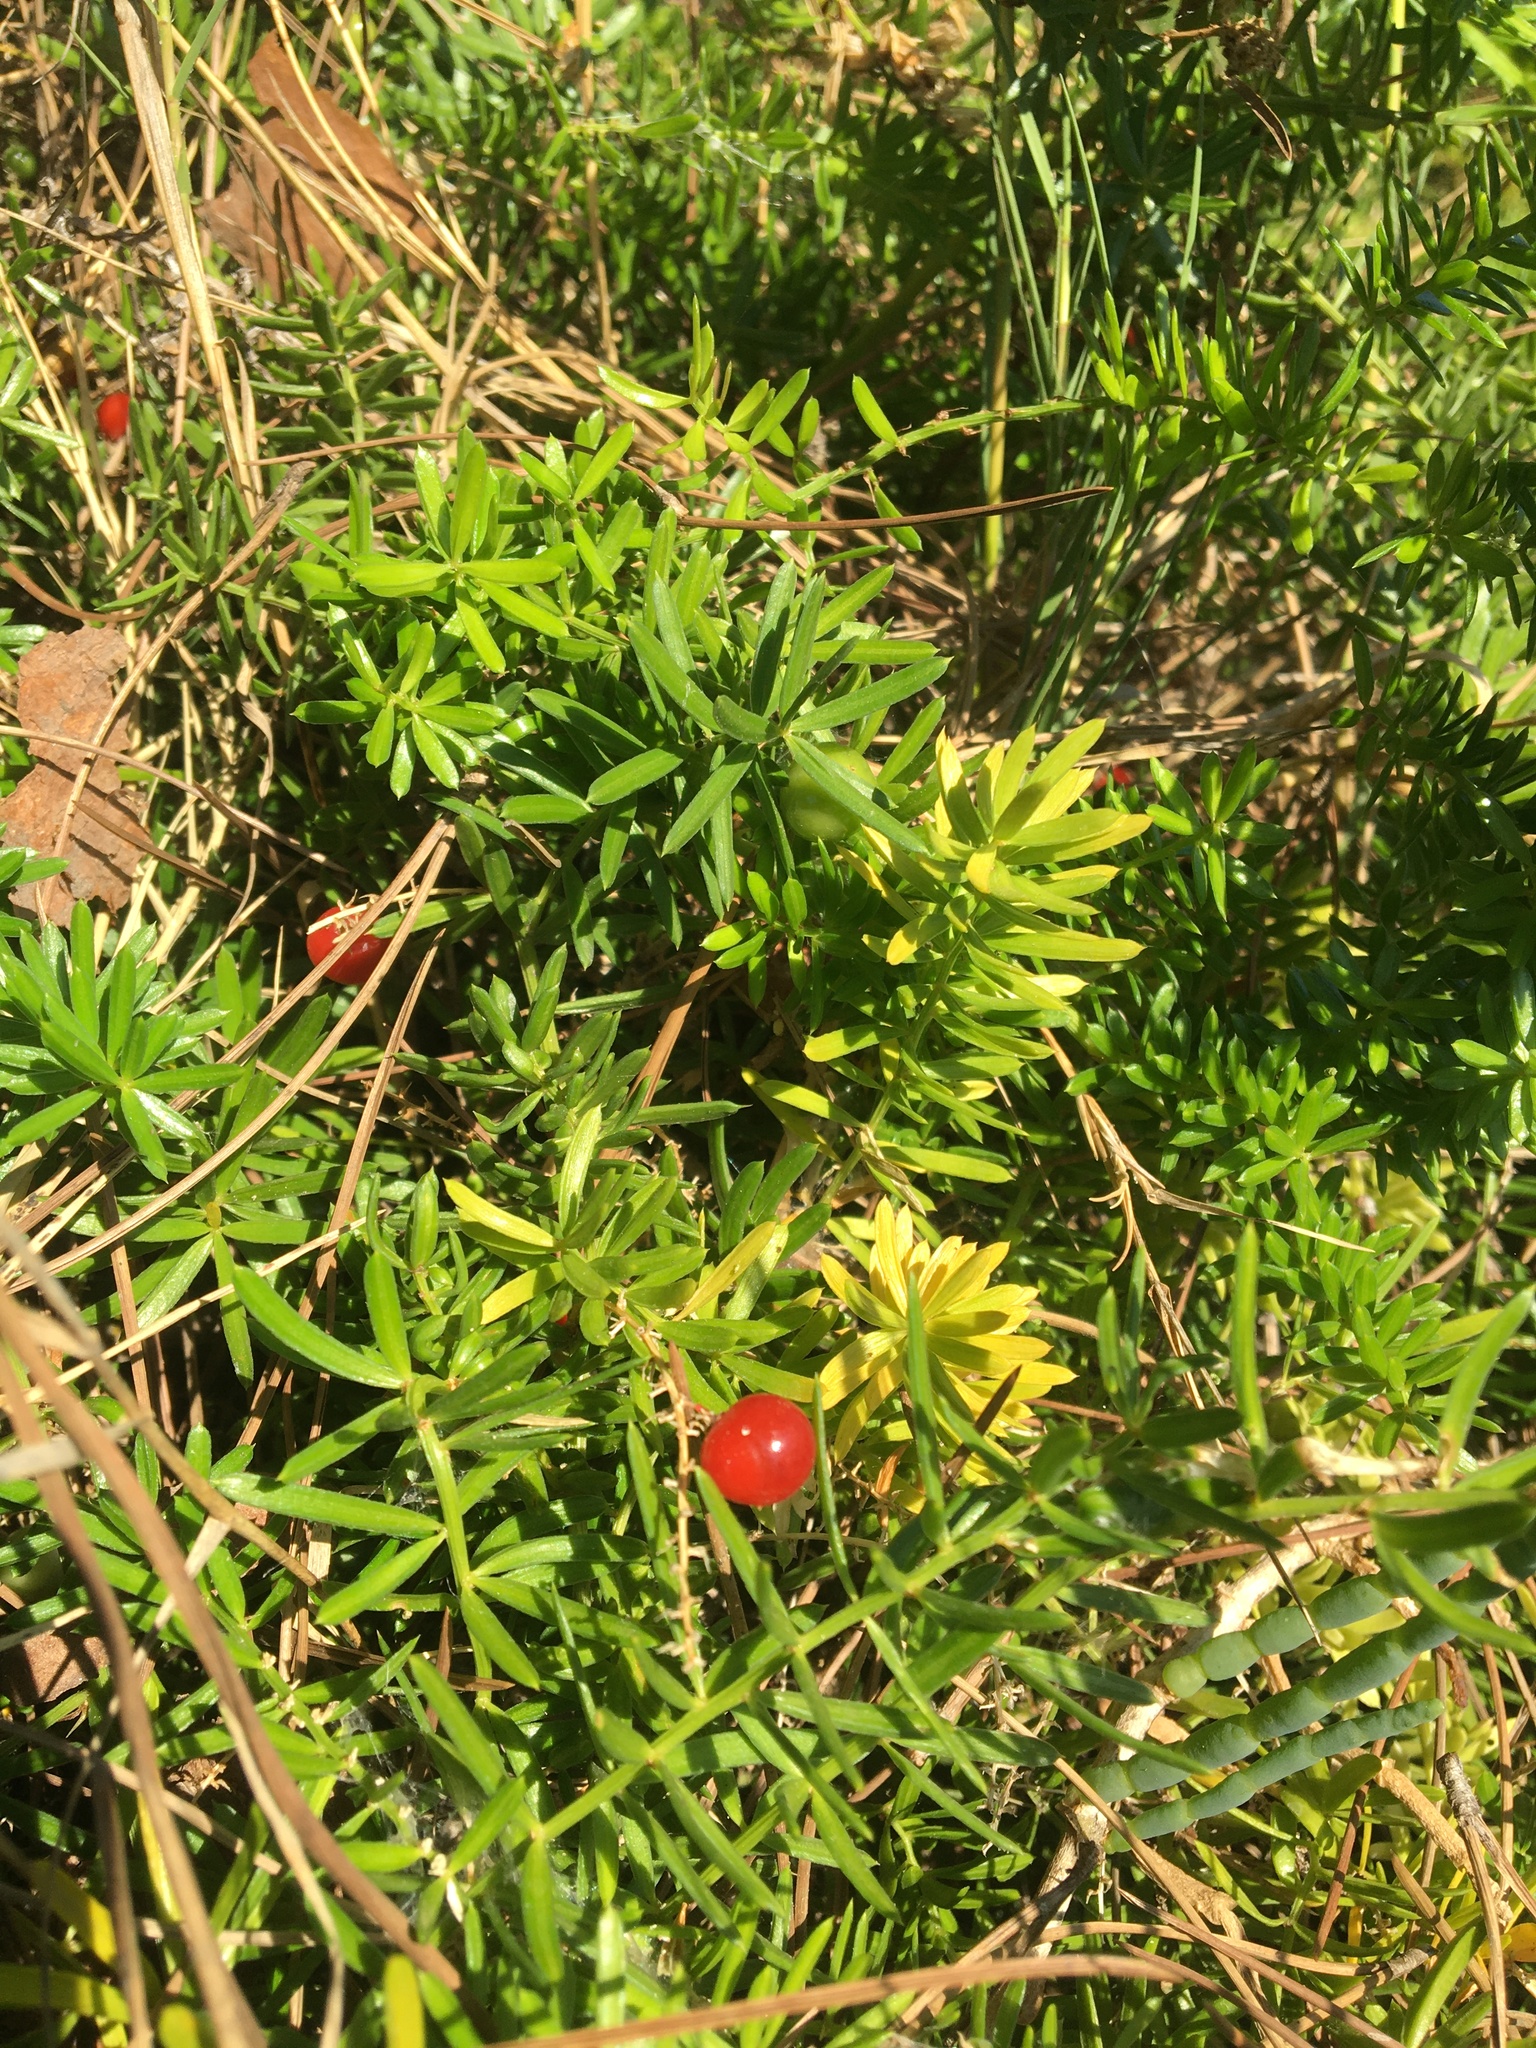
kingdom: Plantae
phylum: Tracheophyta
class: Liliopsida
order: Asparagales
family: Asparagaceae
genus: Asparagus
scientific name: Asparagus aethiopicus
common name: Sprenger's asparagus fern
